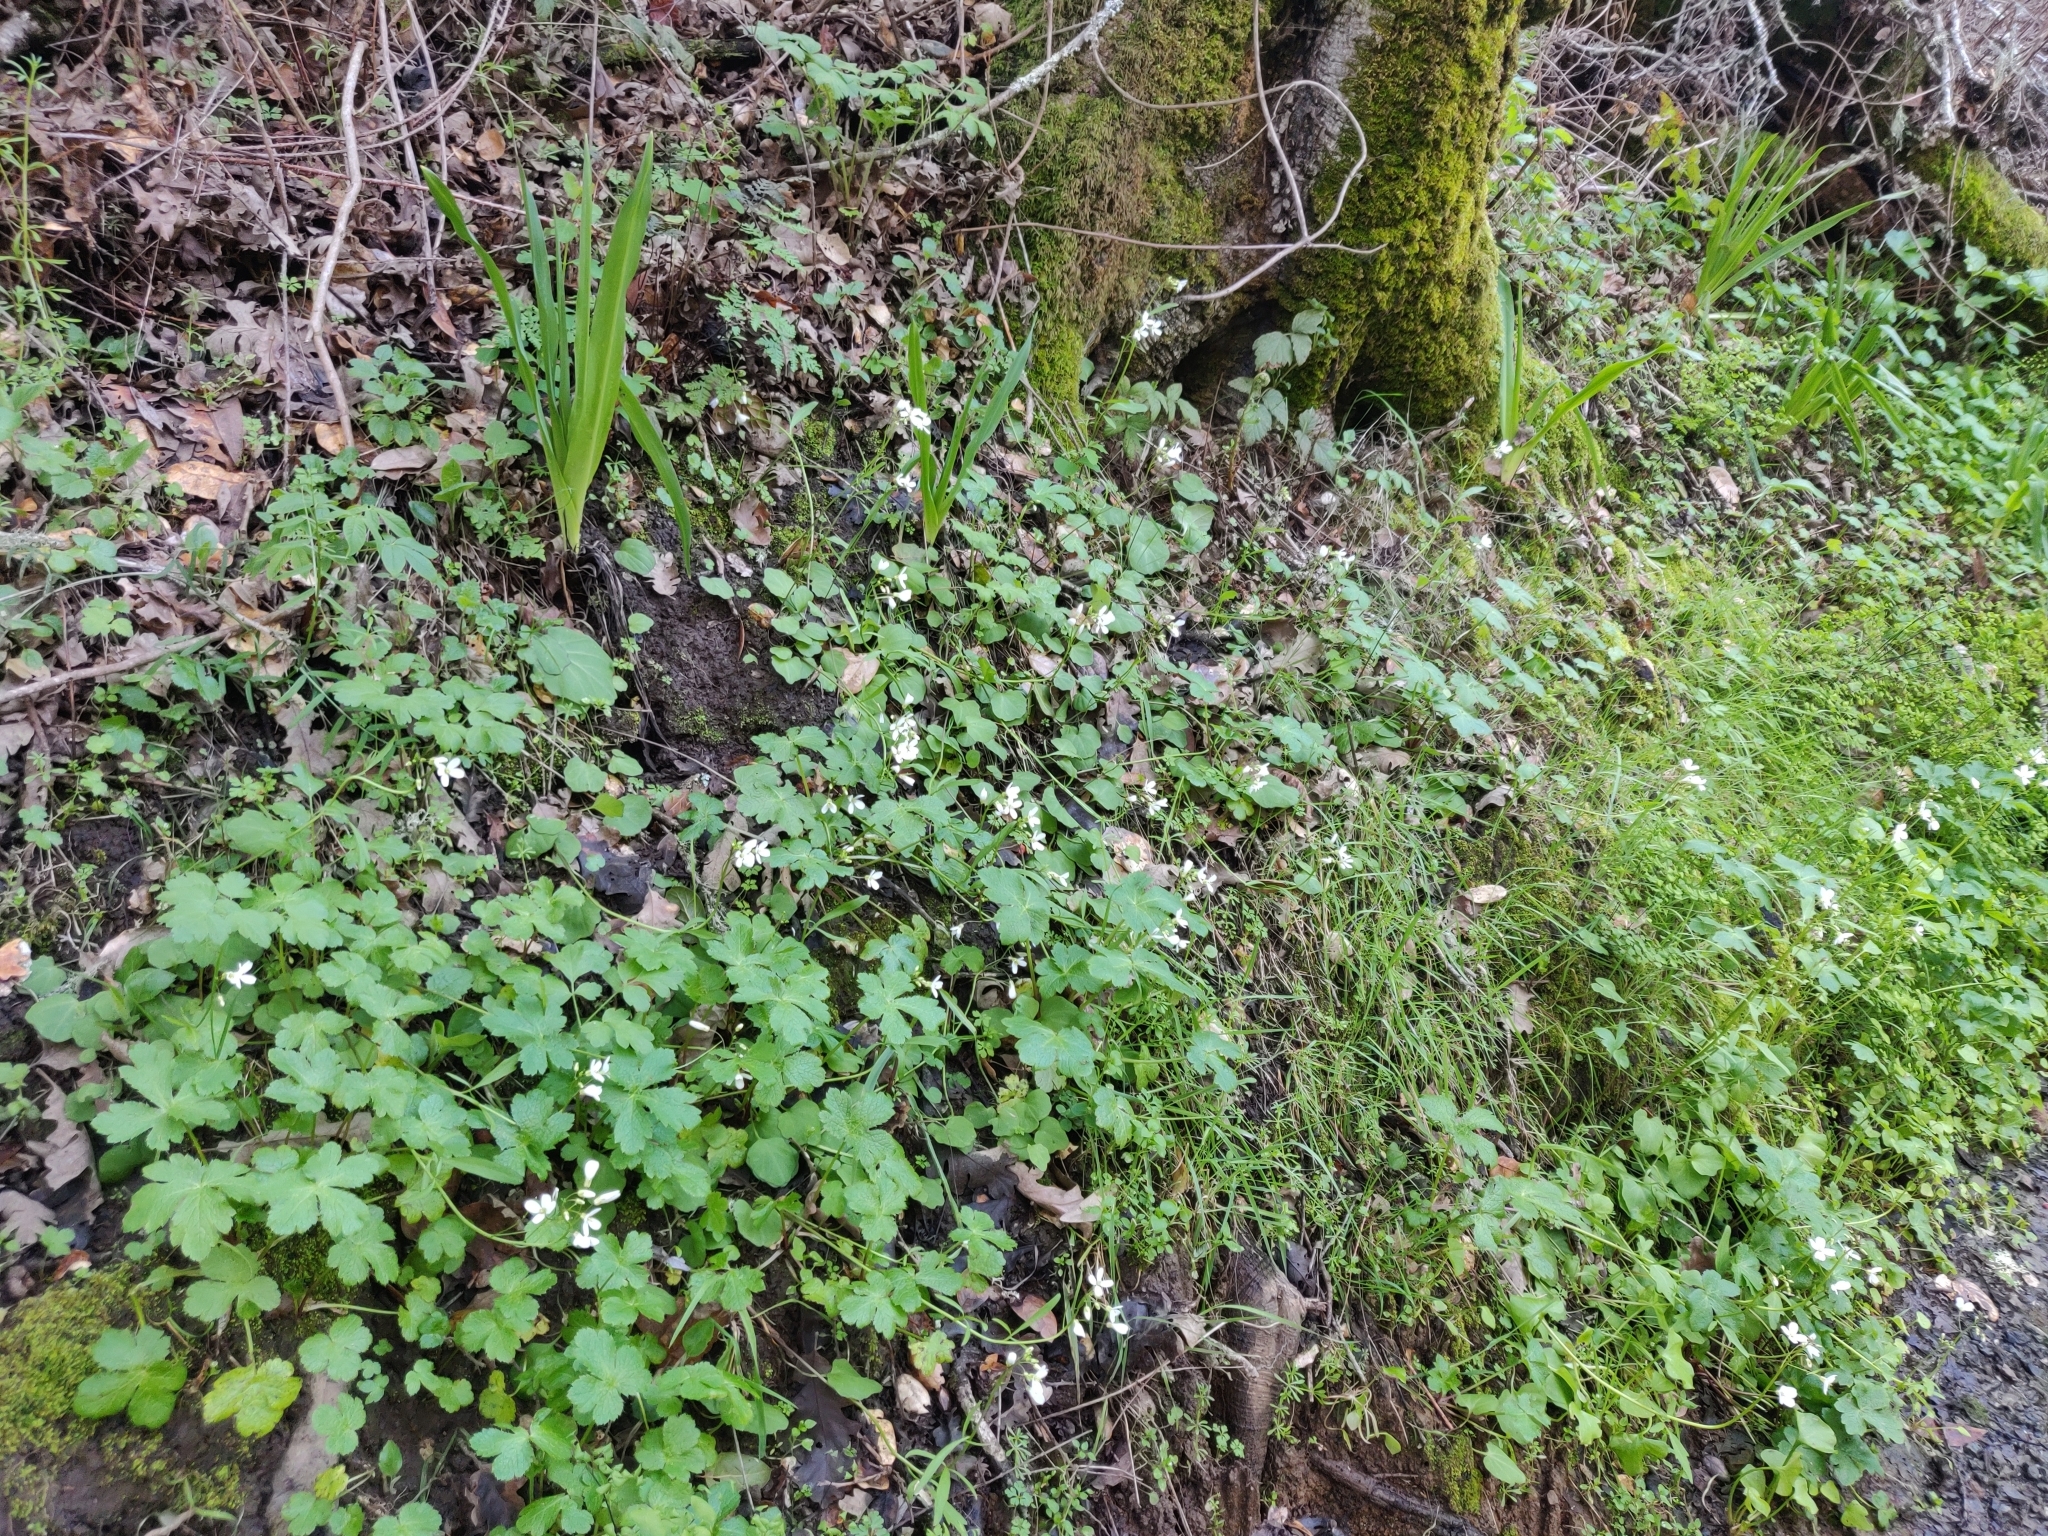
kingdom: Plantae
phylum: Tracheophyta
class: Magnoliopsida
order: Brassicales
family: Brassicaceae
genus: Cardamine
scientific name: Cardamine californica
